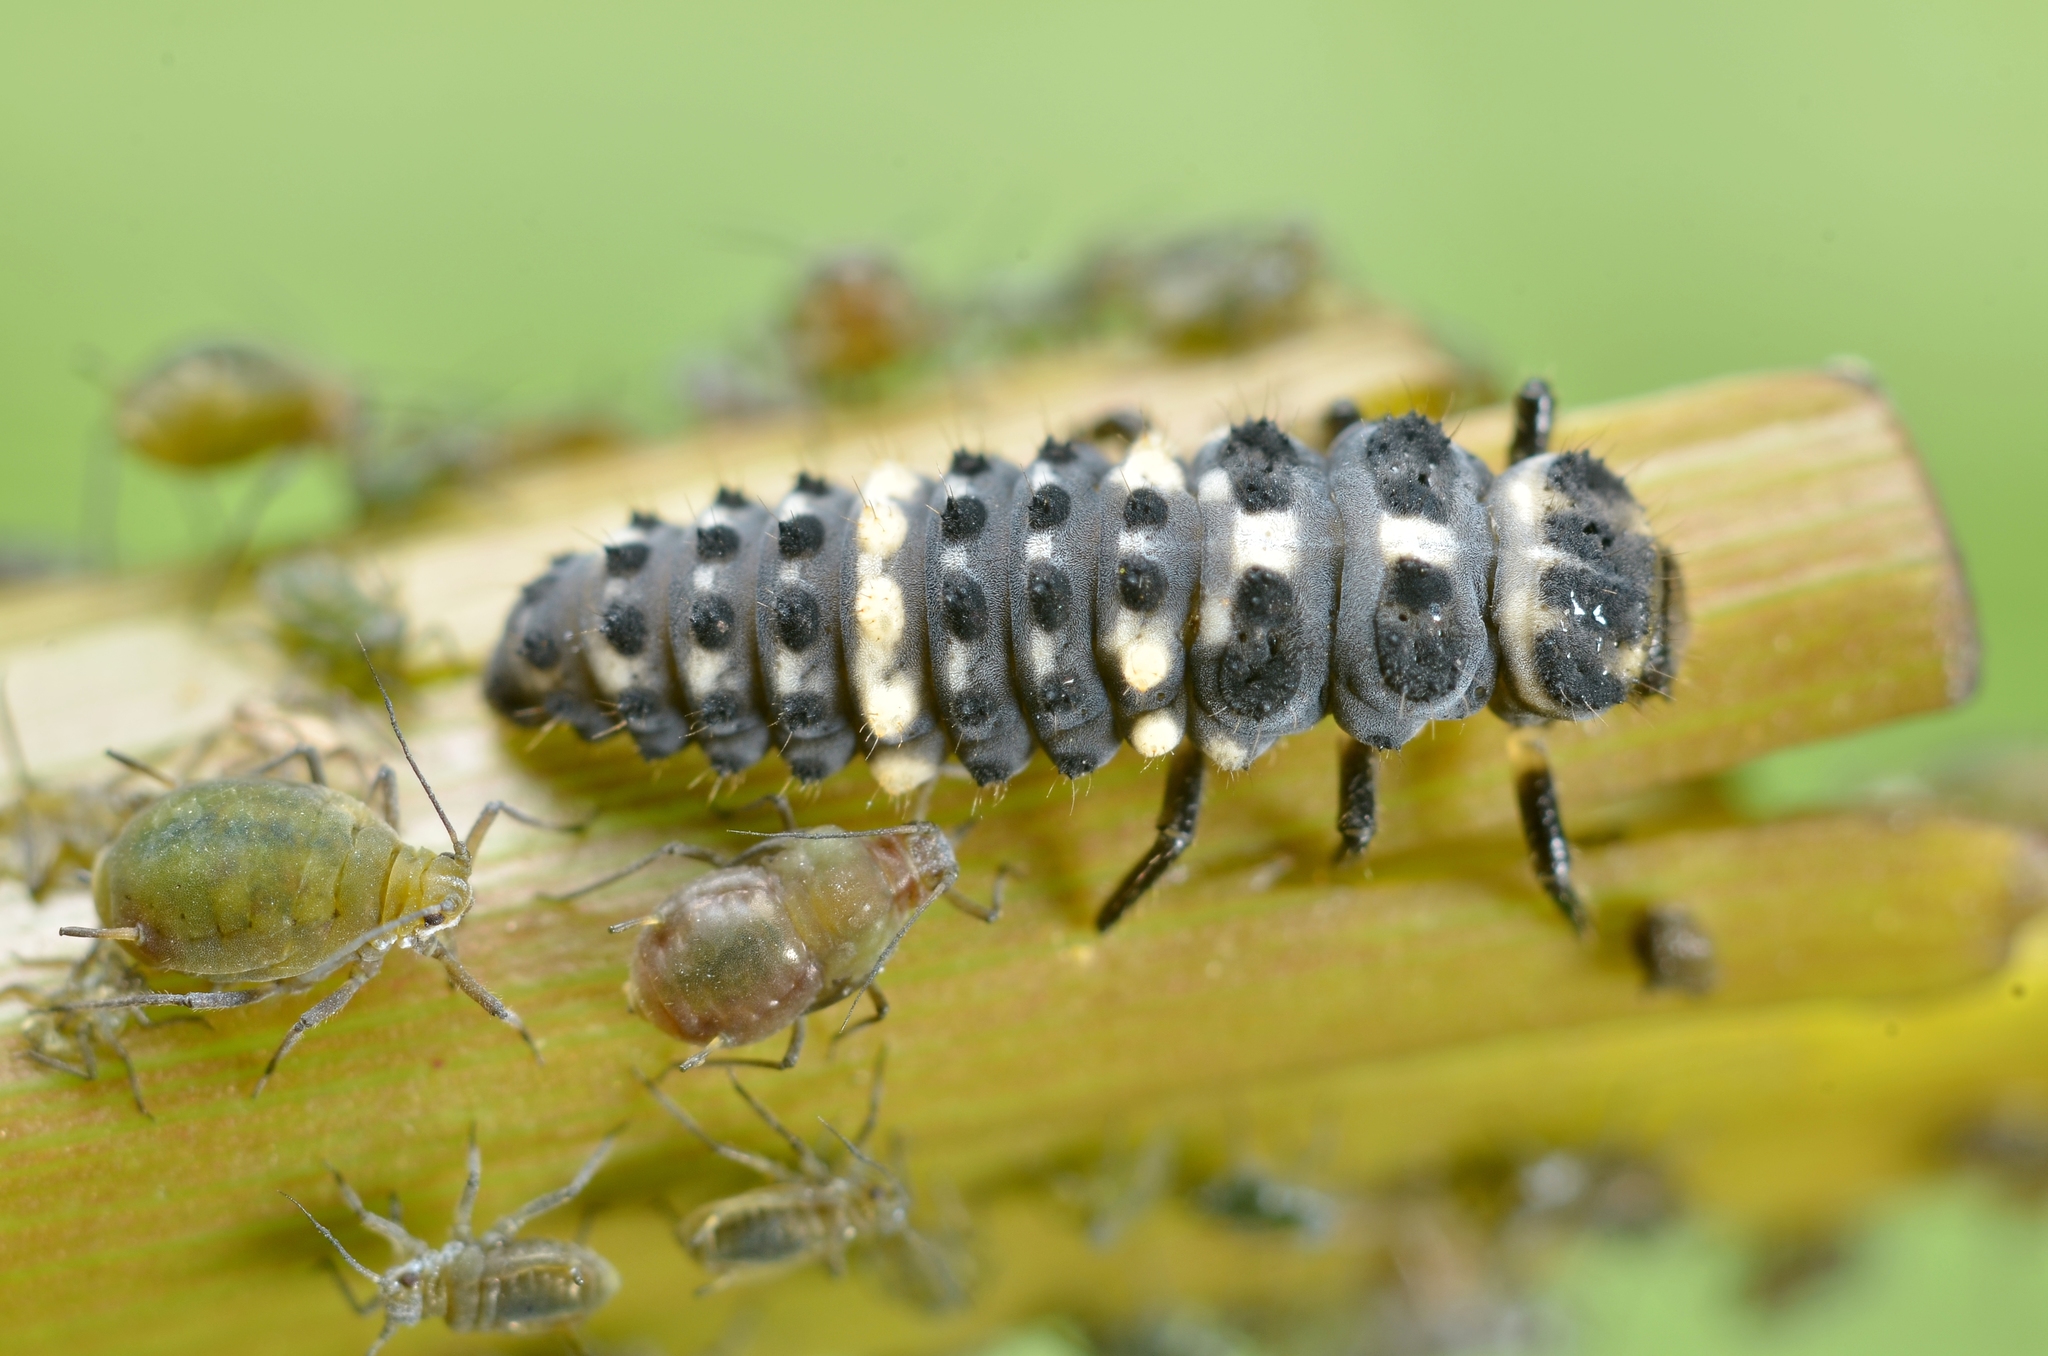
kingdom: Animalia
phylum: Arthropoda
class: Insecta
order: Coleoptera
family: Coccinellidae
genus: Hippodamia
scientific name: Hippodamia tredecimpunctata
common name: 13-spot ladybird
